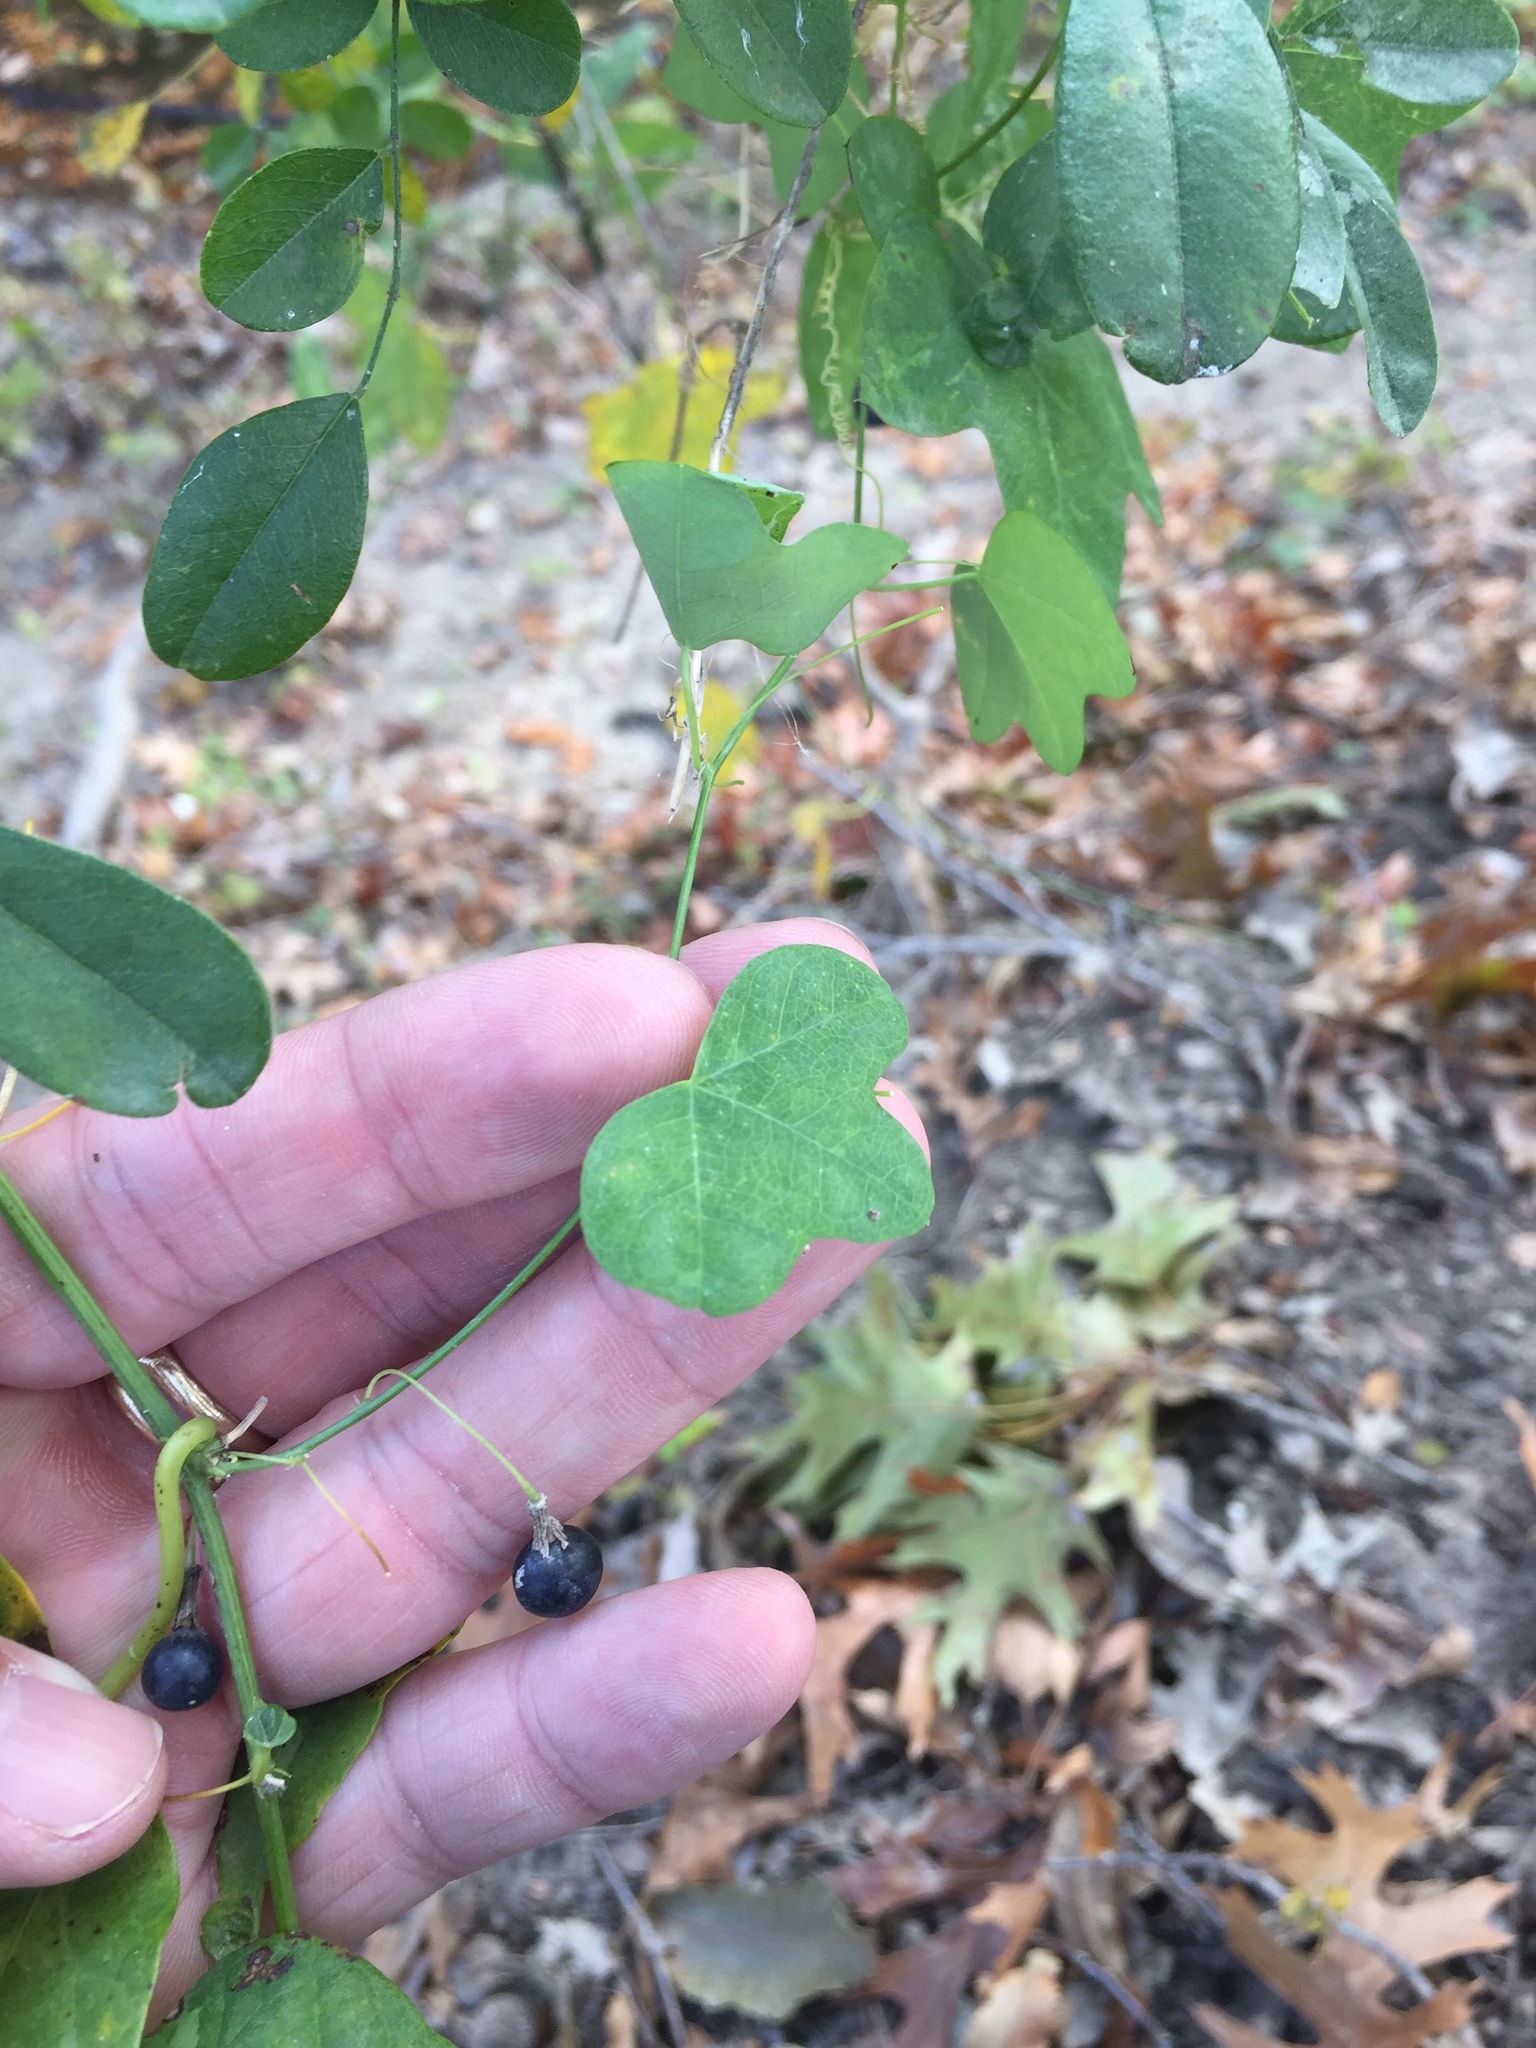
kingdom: Plantae
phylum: Tracheophyta
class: Magnoliopsida
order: Malpighiales
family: Passifloraceae
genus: Passiflora
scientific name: Passiflora lutea
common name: Yellow passionflower
